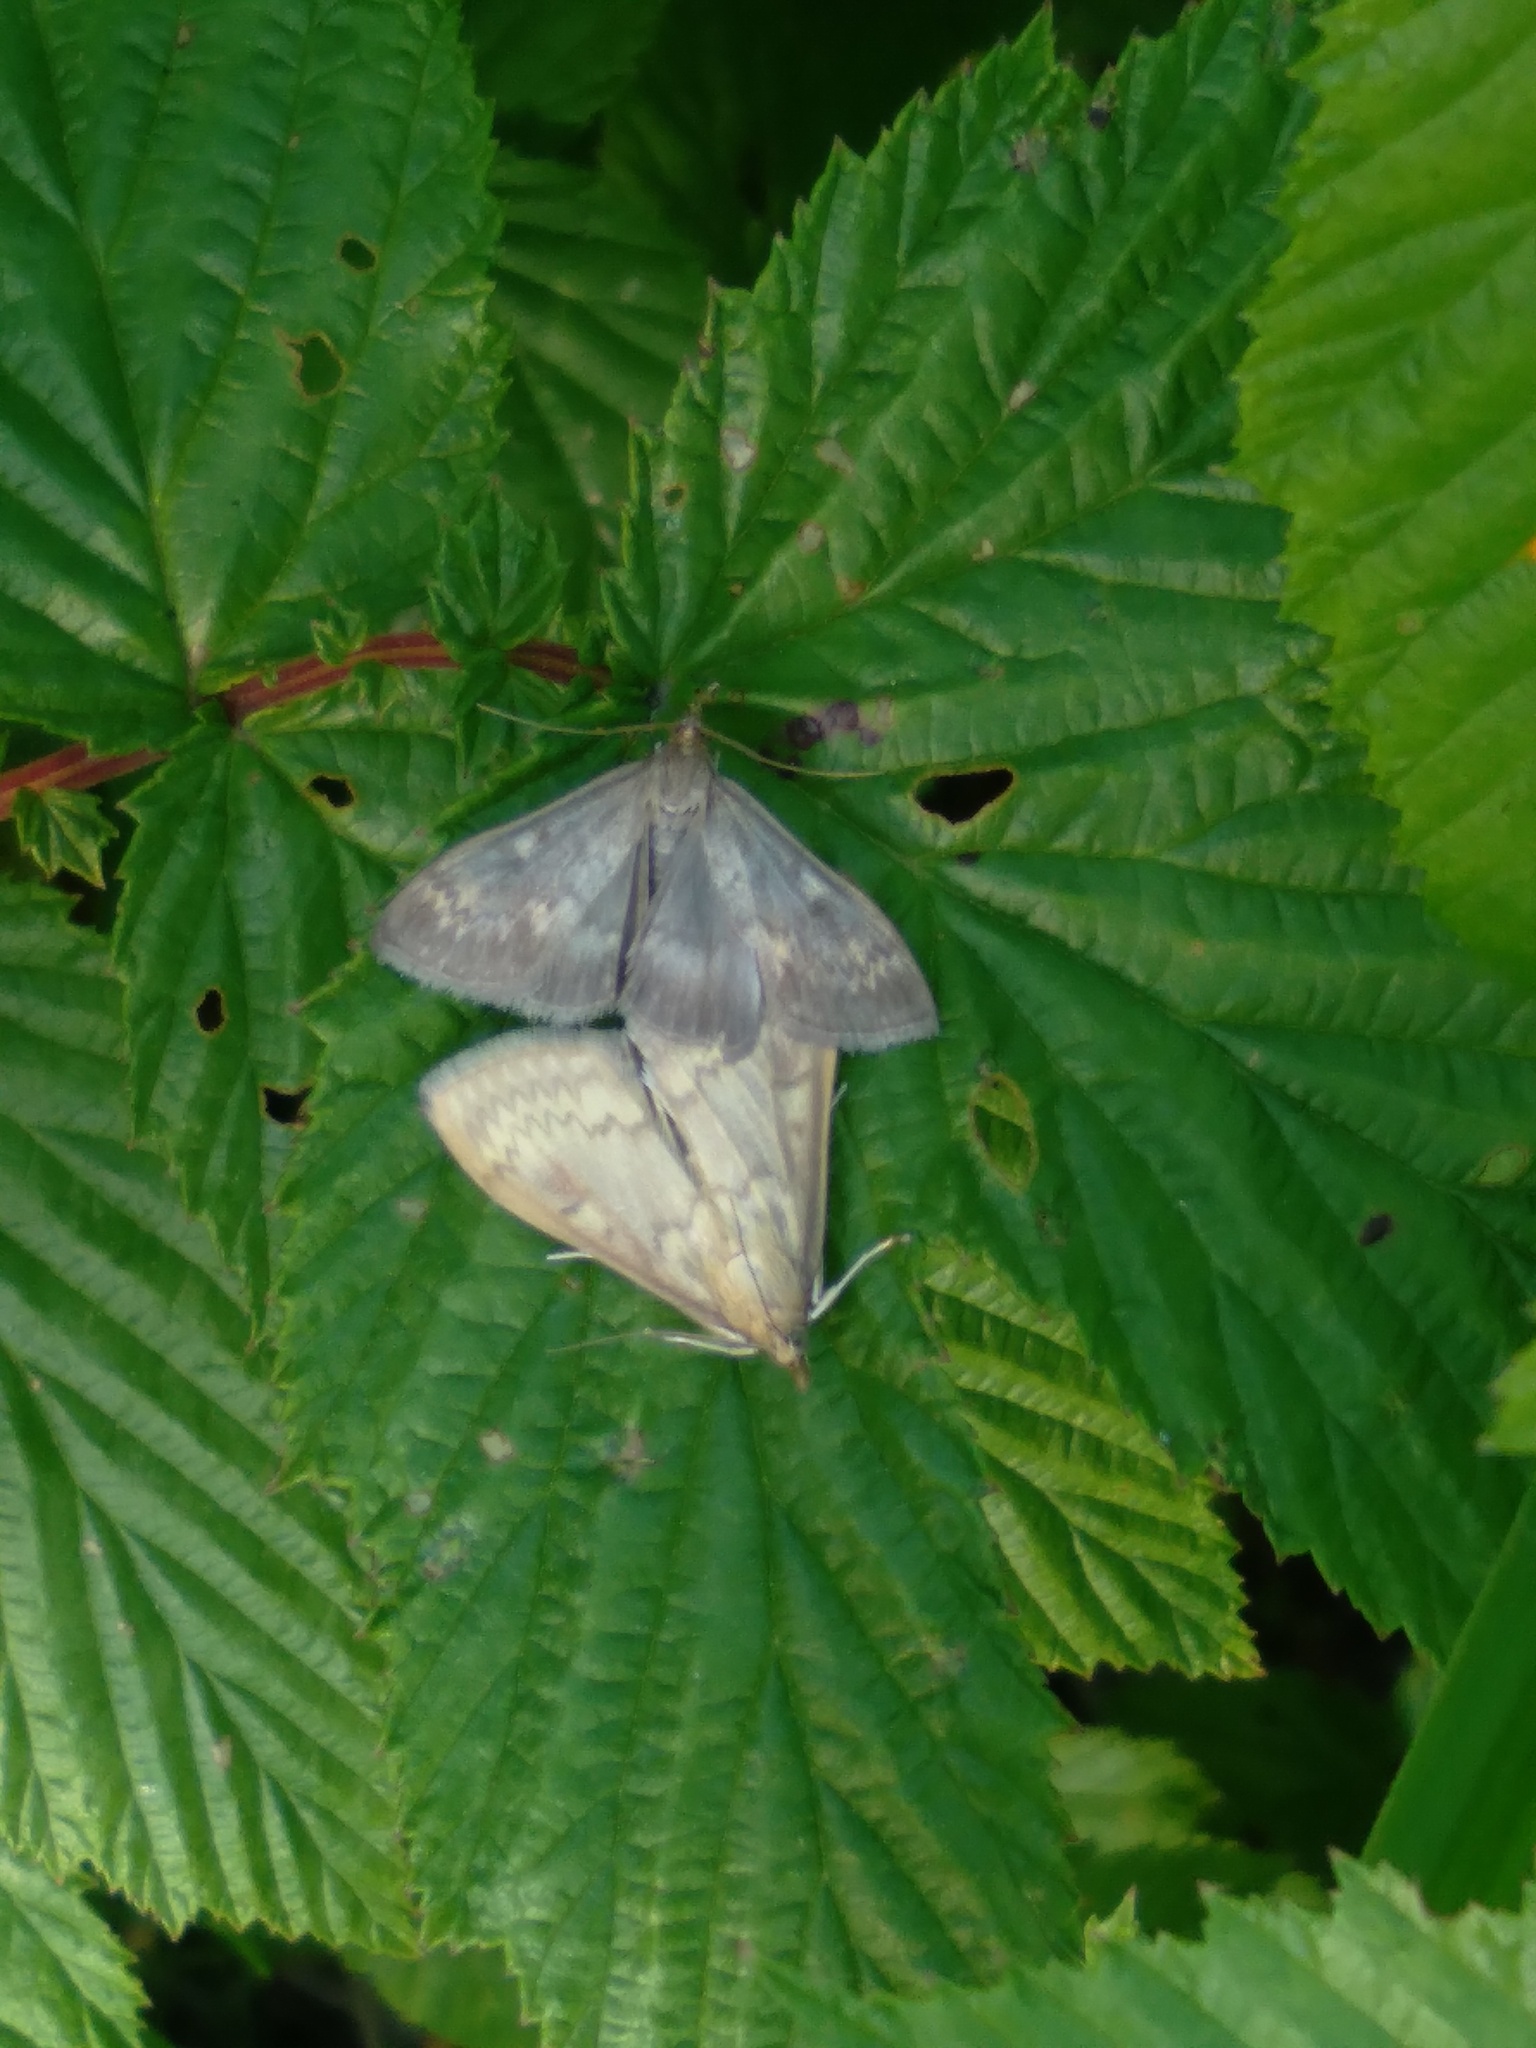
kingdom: Animalia
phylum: Arthropoda
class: Insecta
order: Lepidoptera
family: Crambidae
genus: Ostrinia
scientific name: Ostrinia nubilalis
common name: European corn borer
